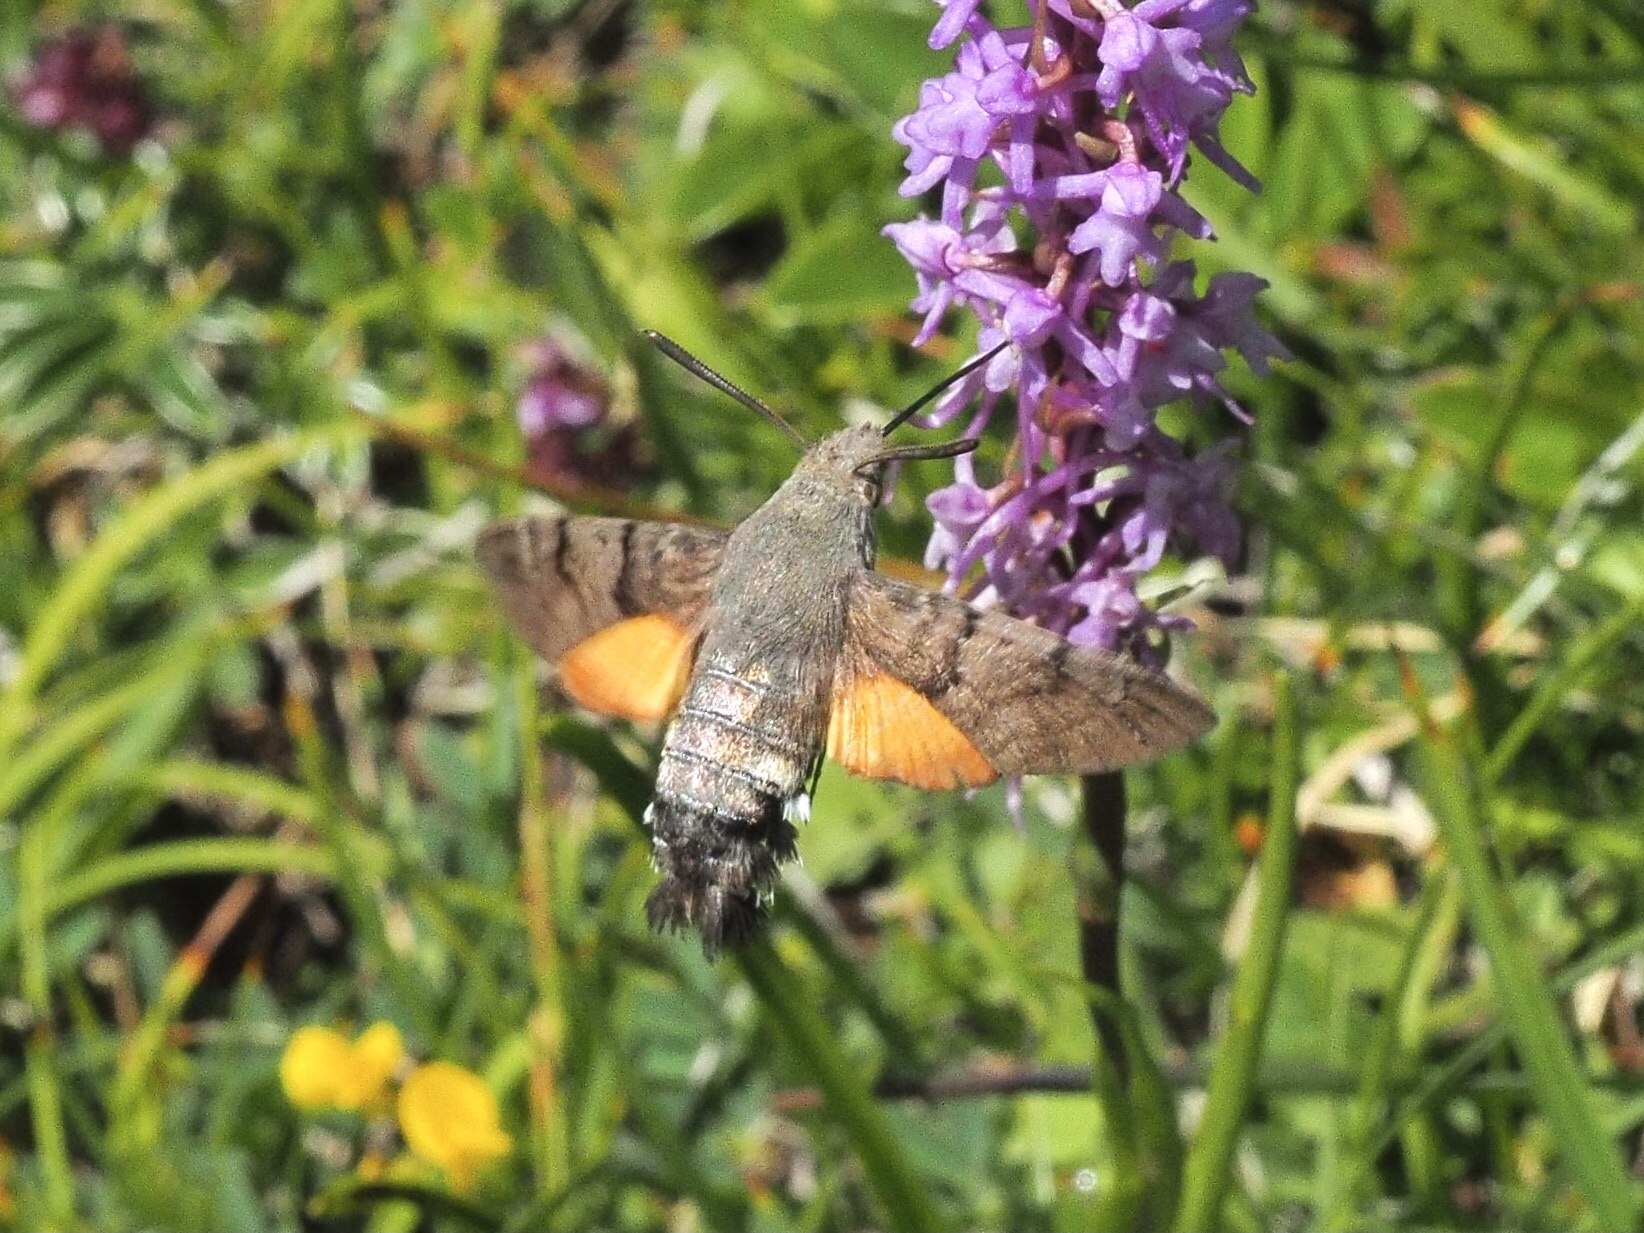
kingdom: Animalia
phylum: Arthropoda
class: Insecta
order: Lepidoptera
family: Sphingidae
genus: Macroglossum
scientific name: Macroglossum stellatarum
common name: Humming-bird hawk-moth
